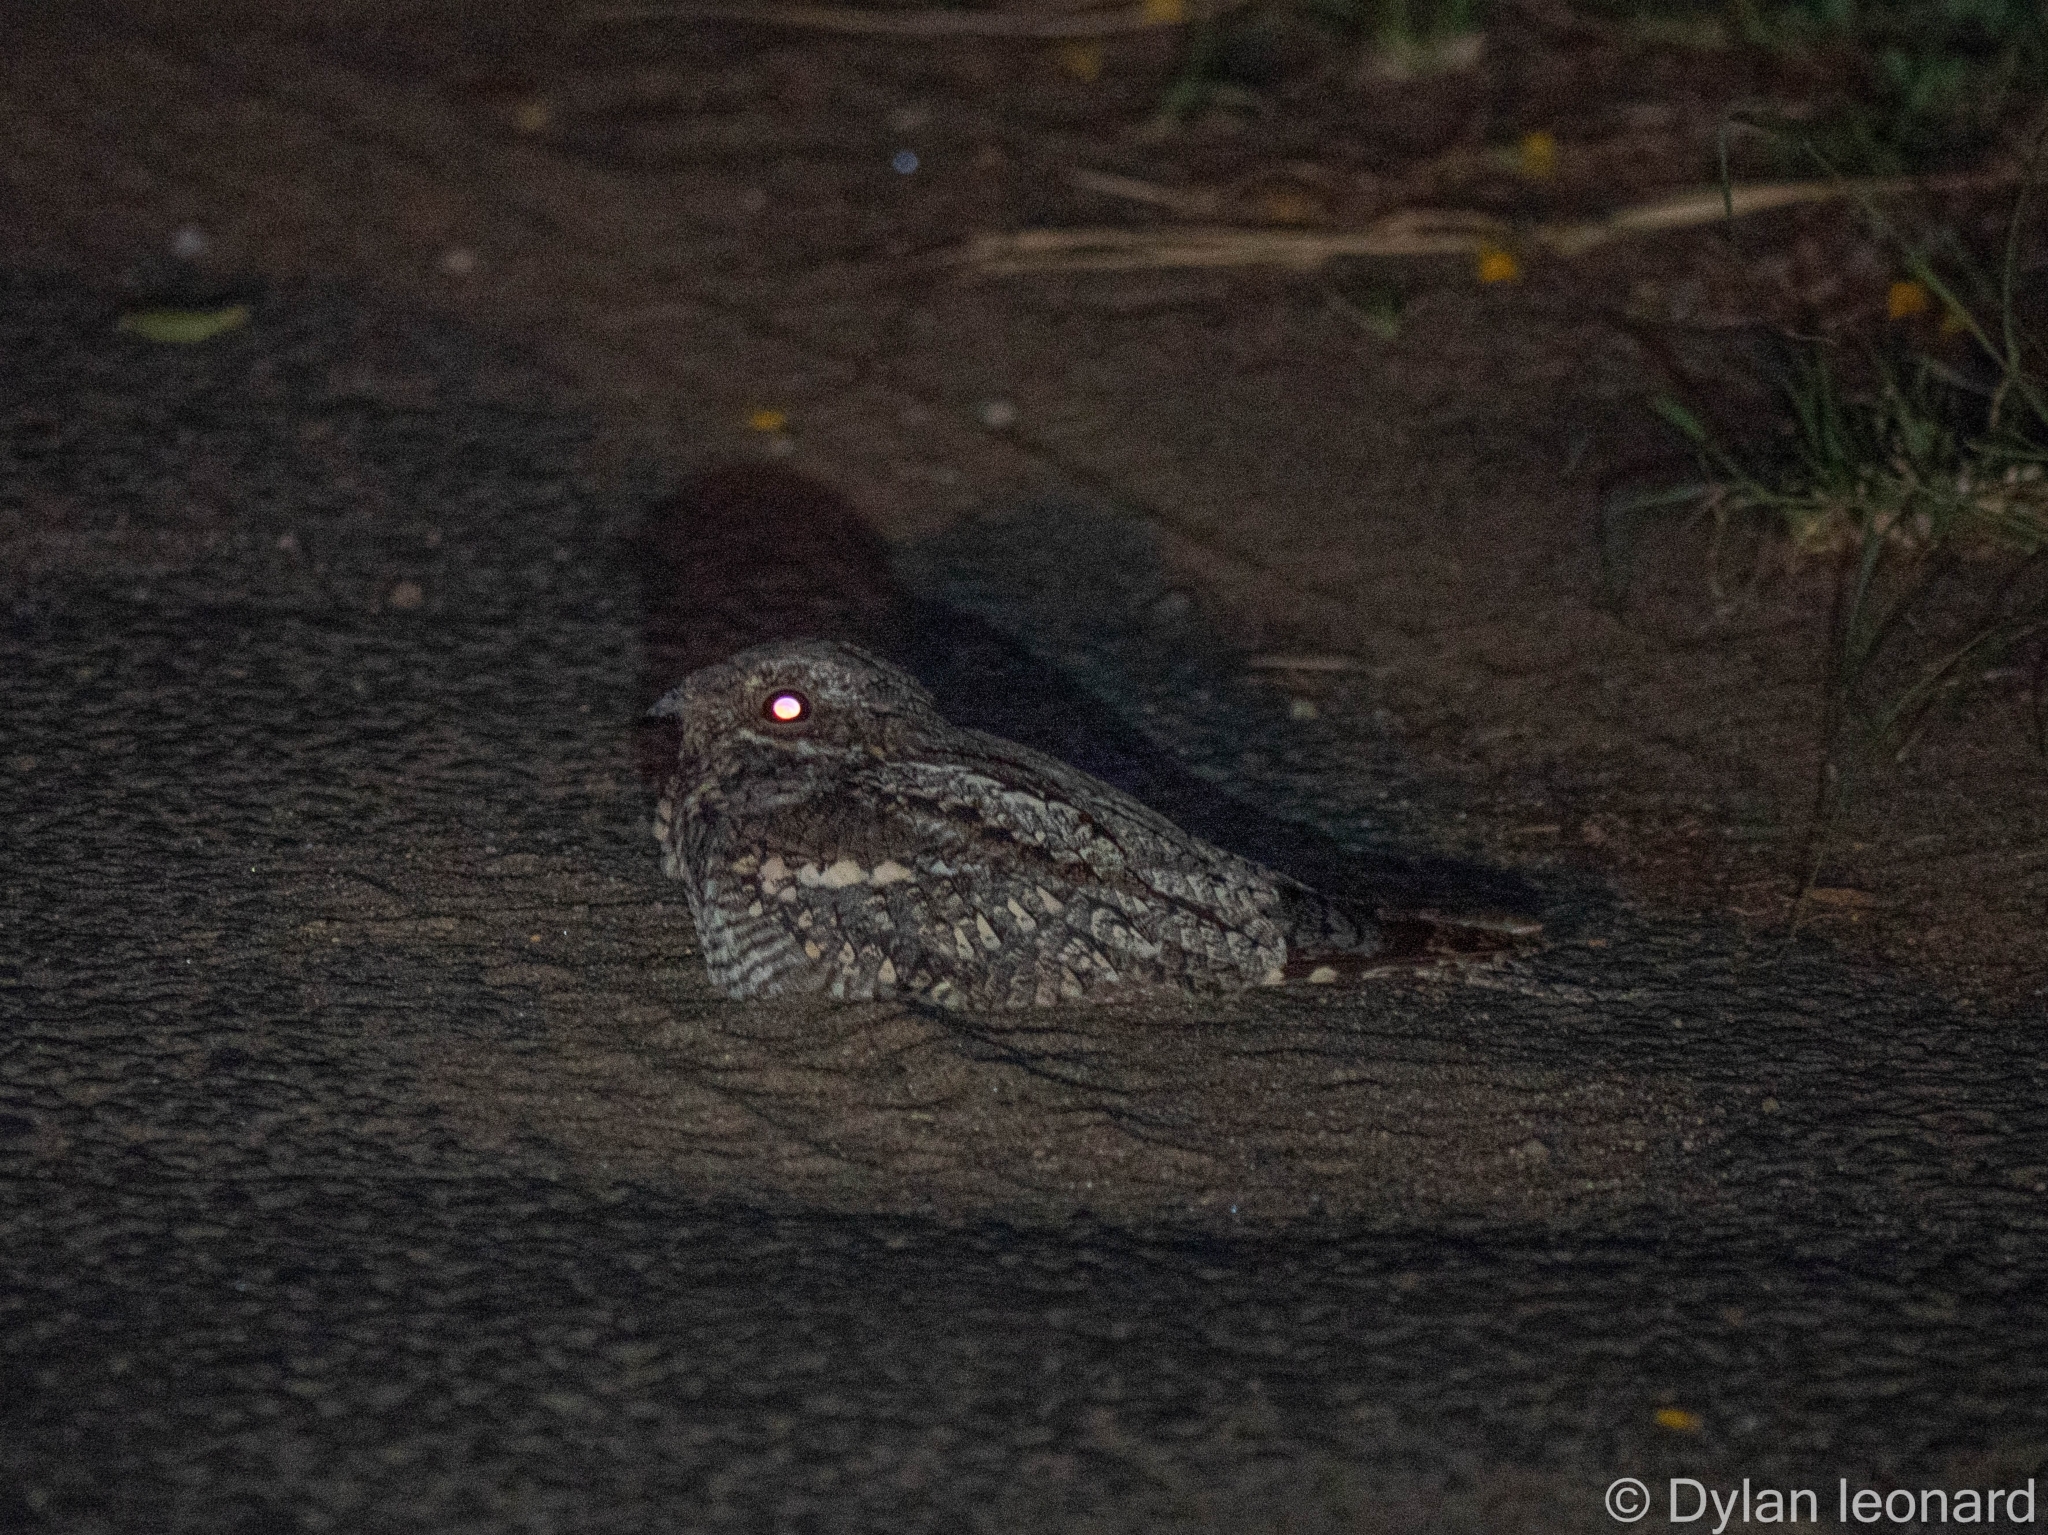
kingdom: Animalia
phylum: Chordata
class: Aves
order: Caprimulgiformes
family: Caprimulgidae
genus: Caprimulgus
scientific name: Caprimulgus europaeus
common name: European nightjar
